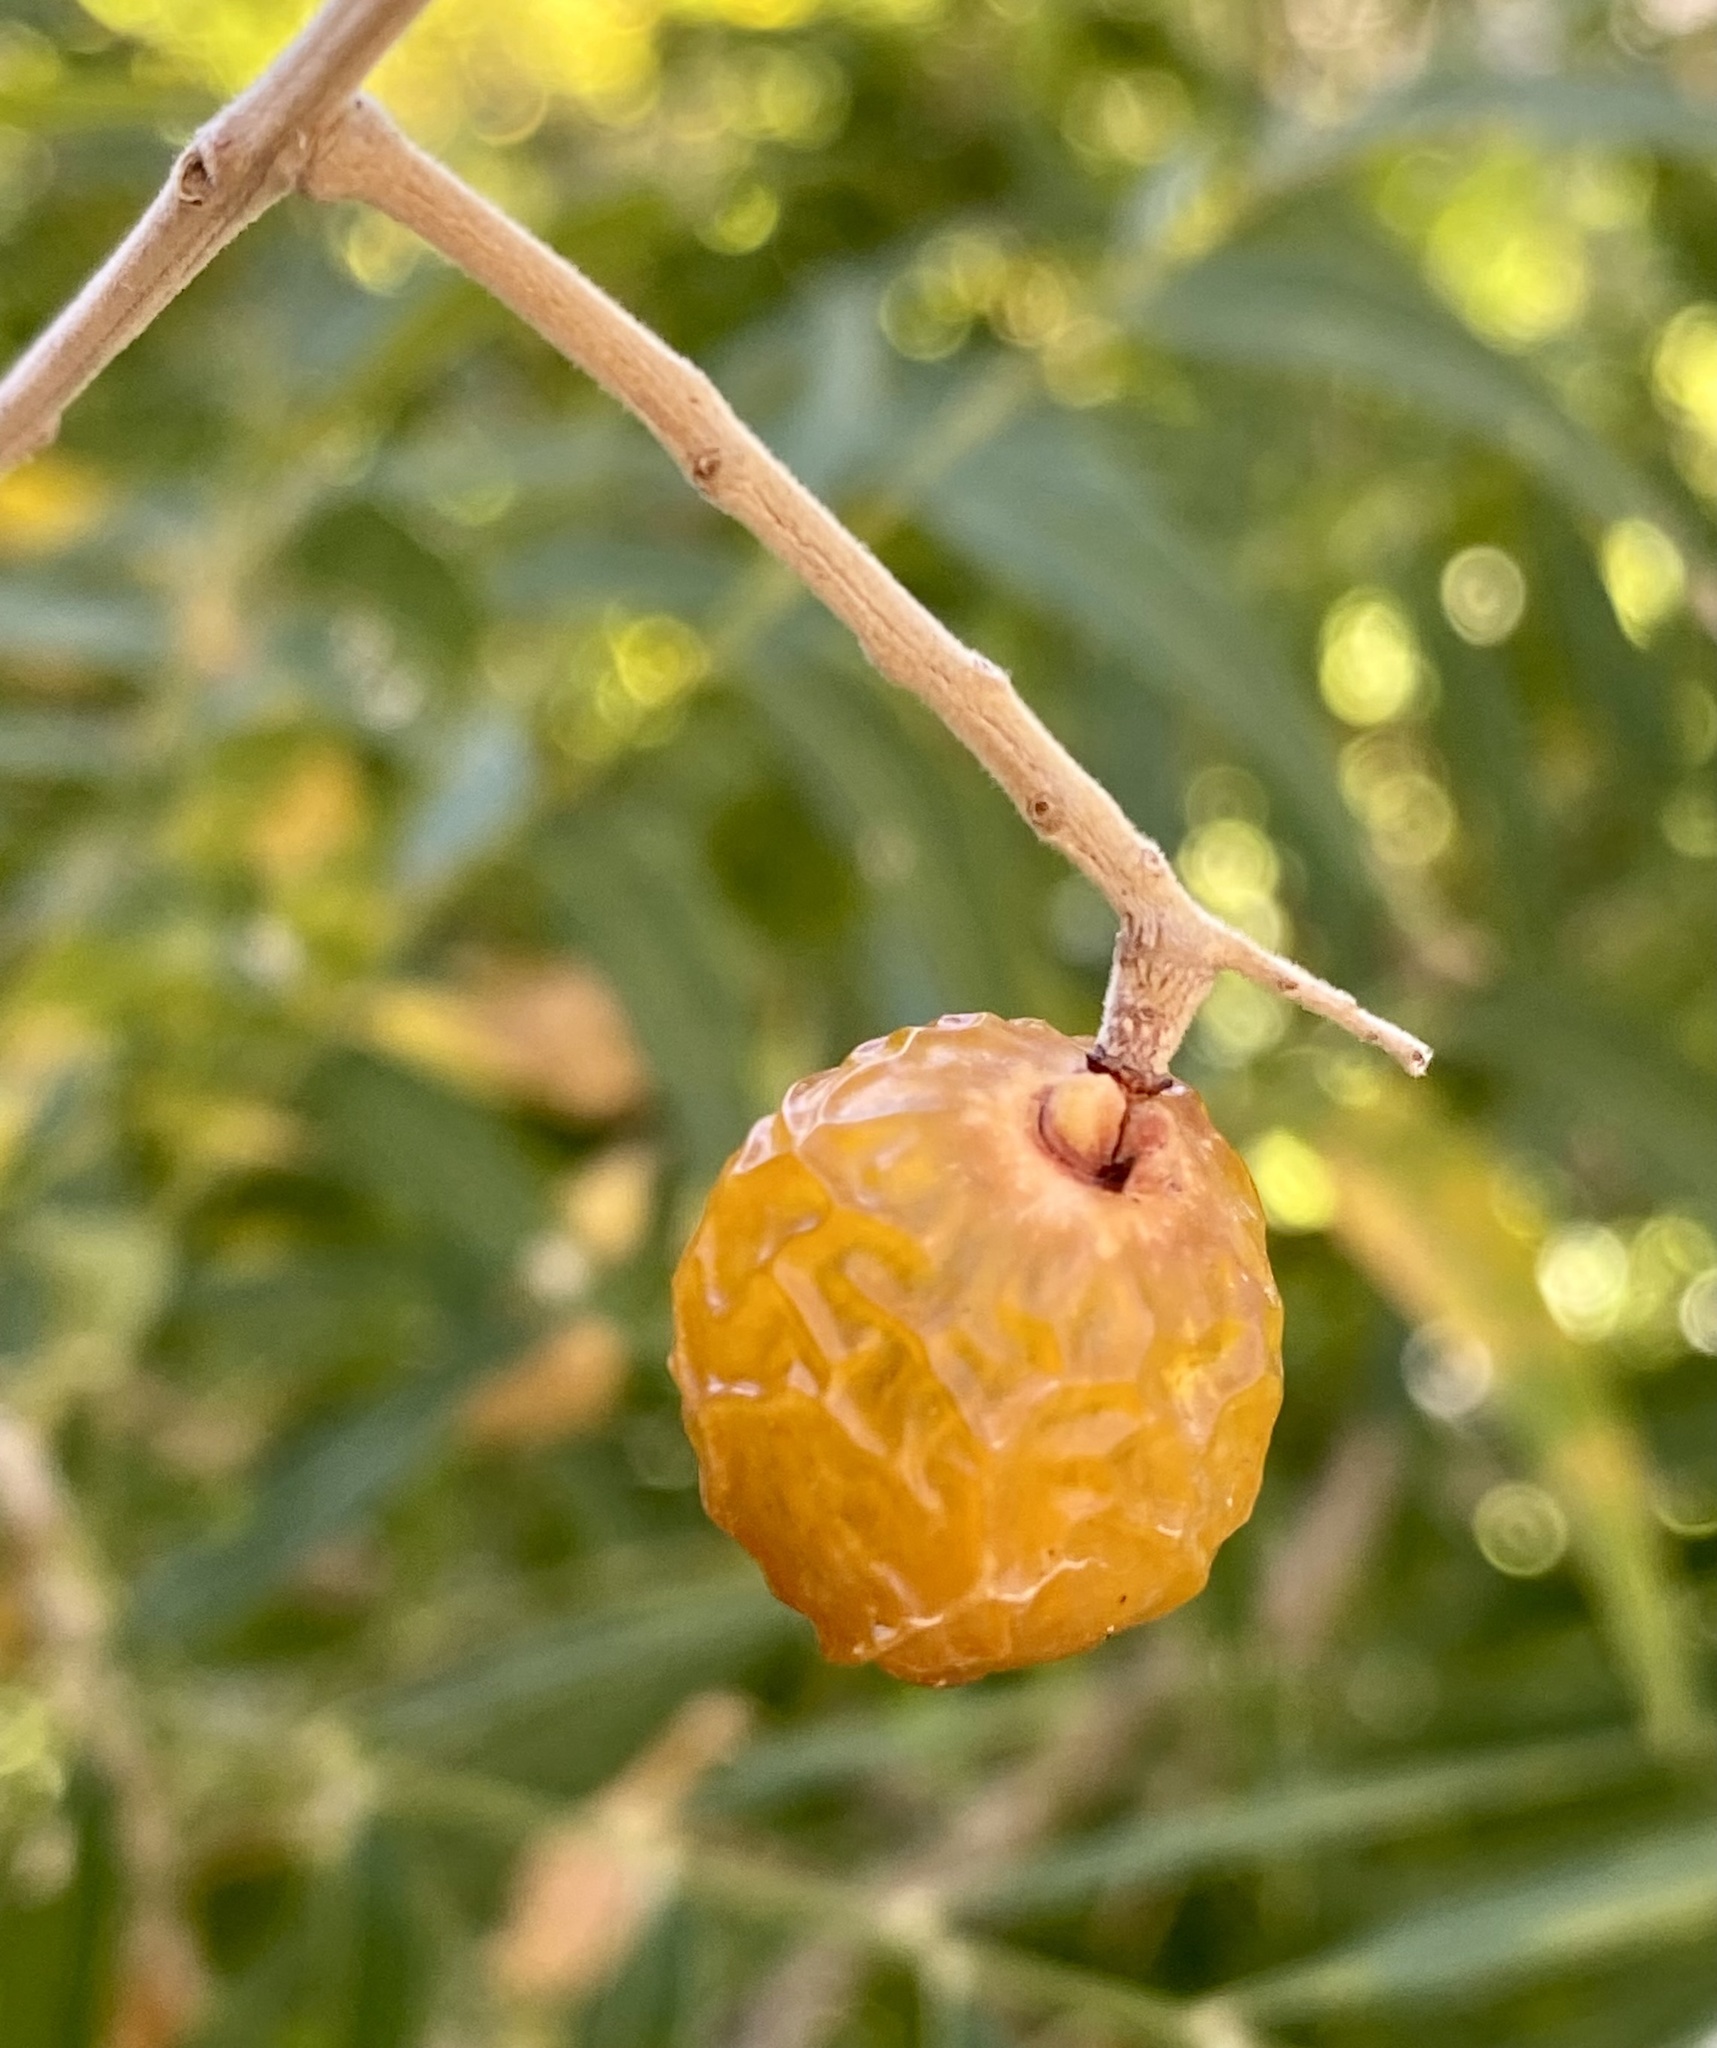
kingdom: Plantae
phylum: Tracheophyta
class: Magnoliopsida
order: Sapindales
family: Sapindaceae
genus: Sapindus
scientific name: Sapindus drummondii
